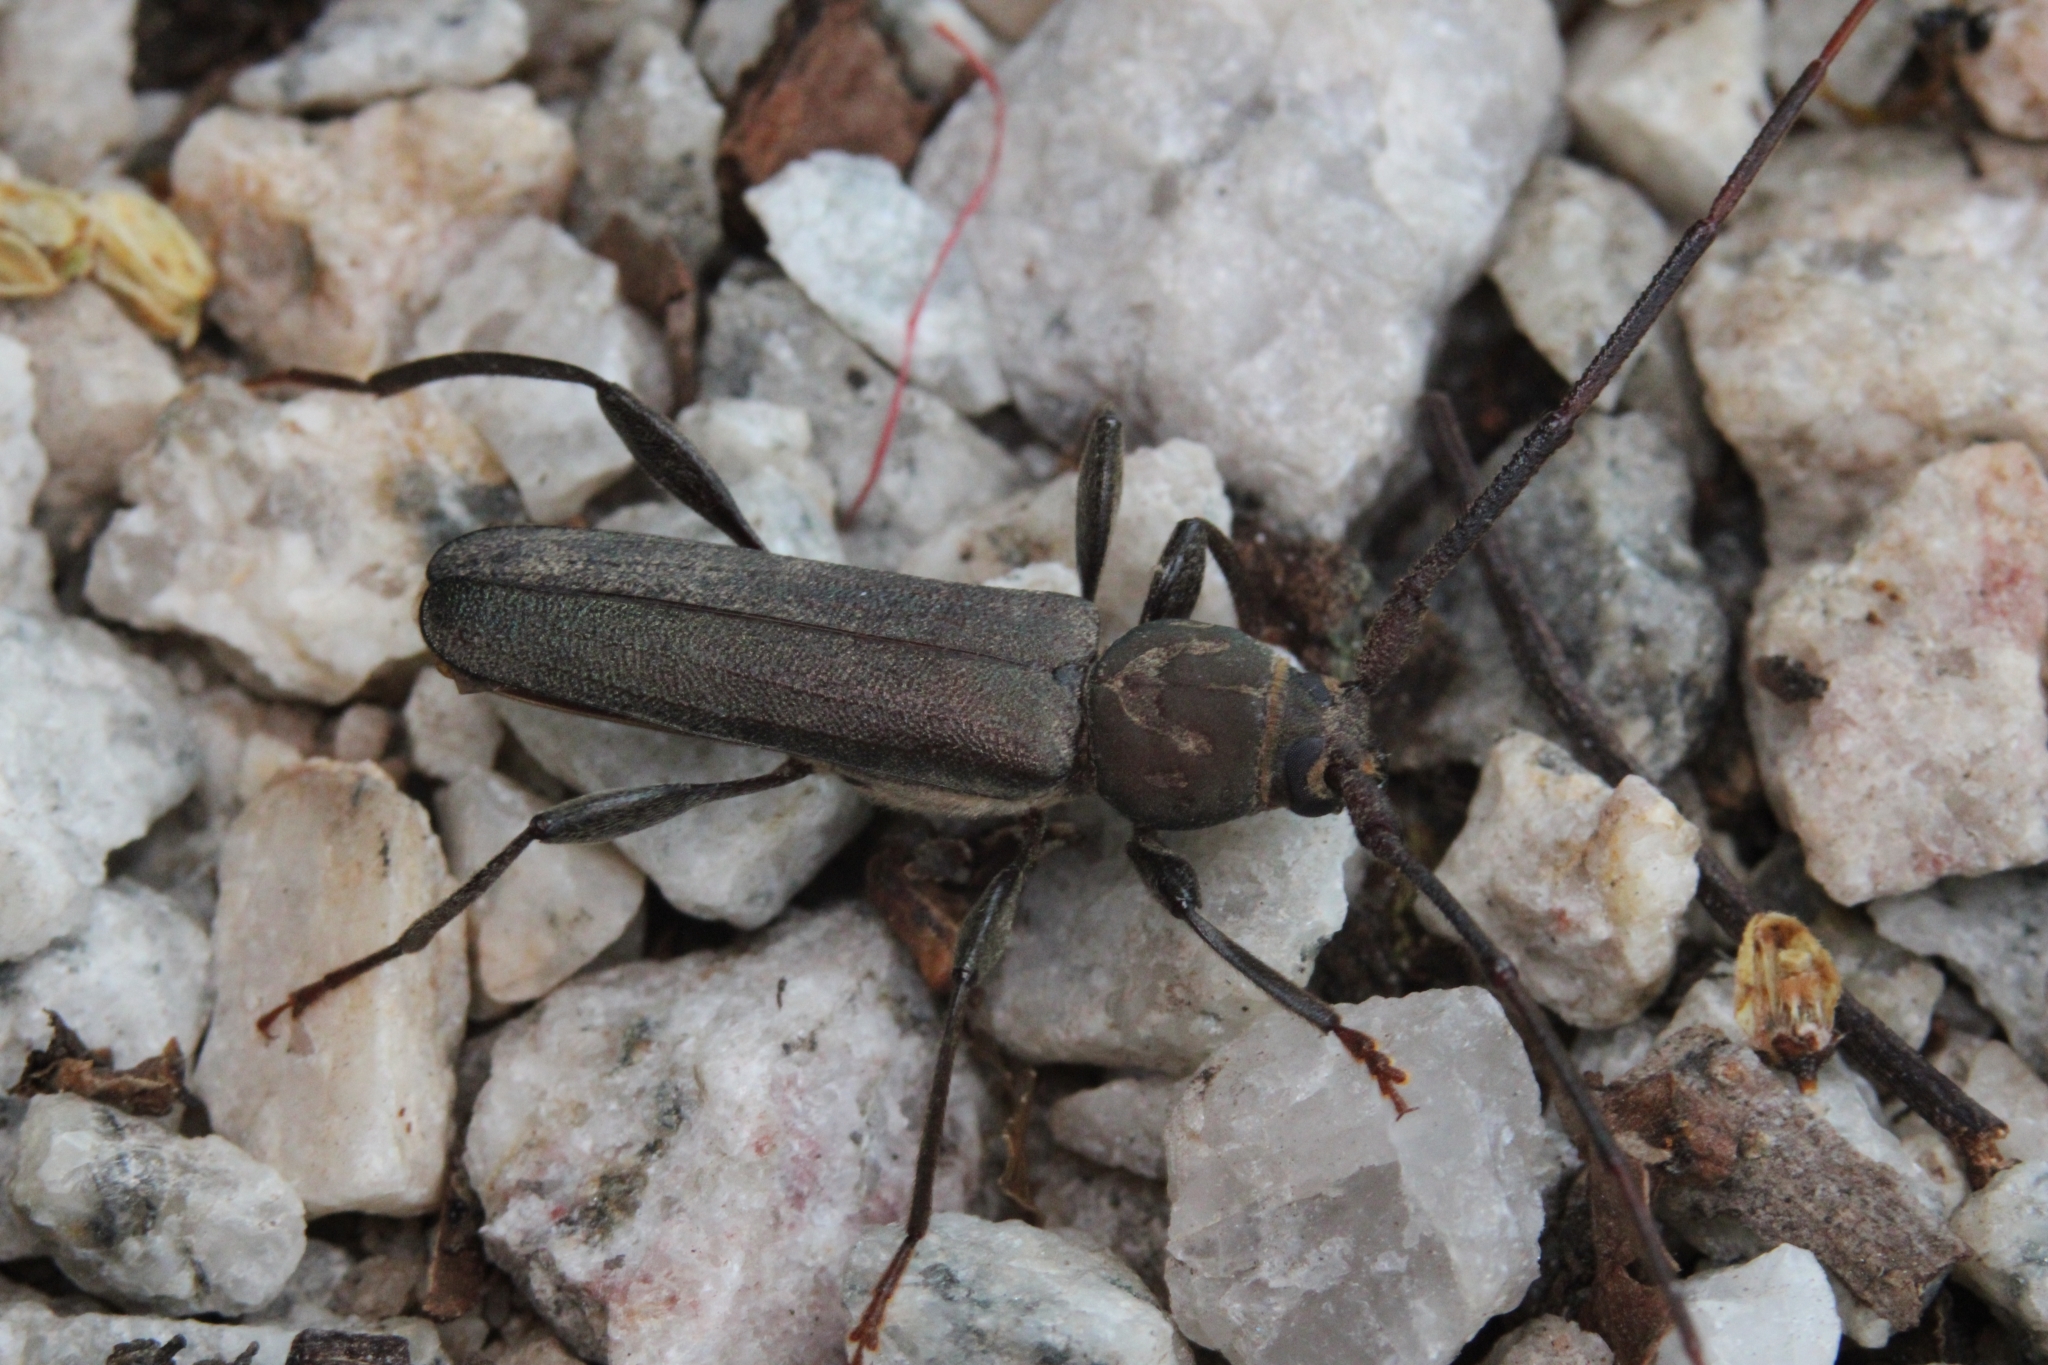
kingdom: Animalia
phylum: Arthropoda
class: Insecta
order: Coleoptera
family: Cerambycidae
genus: Xystrocera
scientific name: Xystrocera erosa
